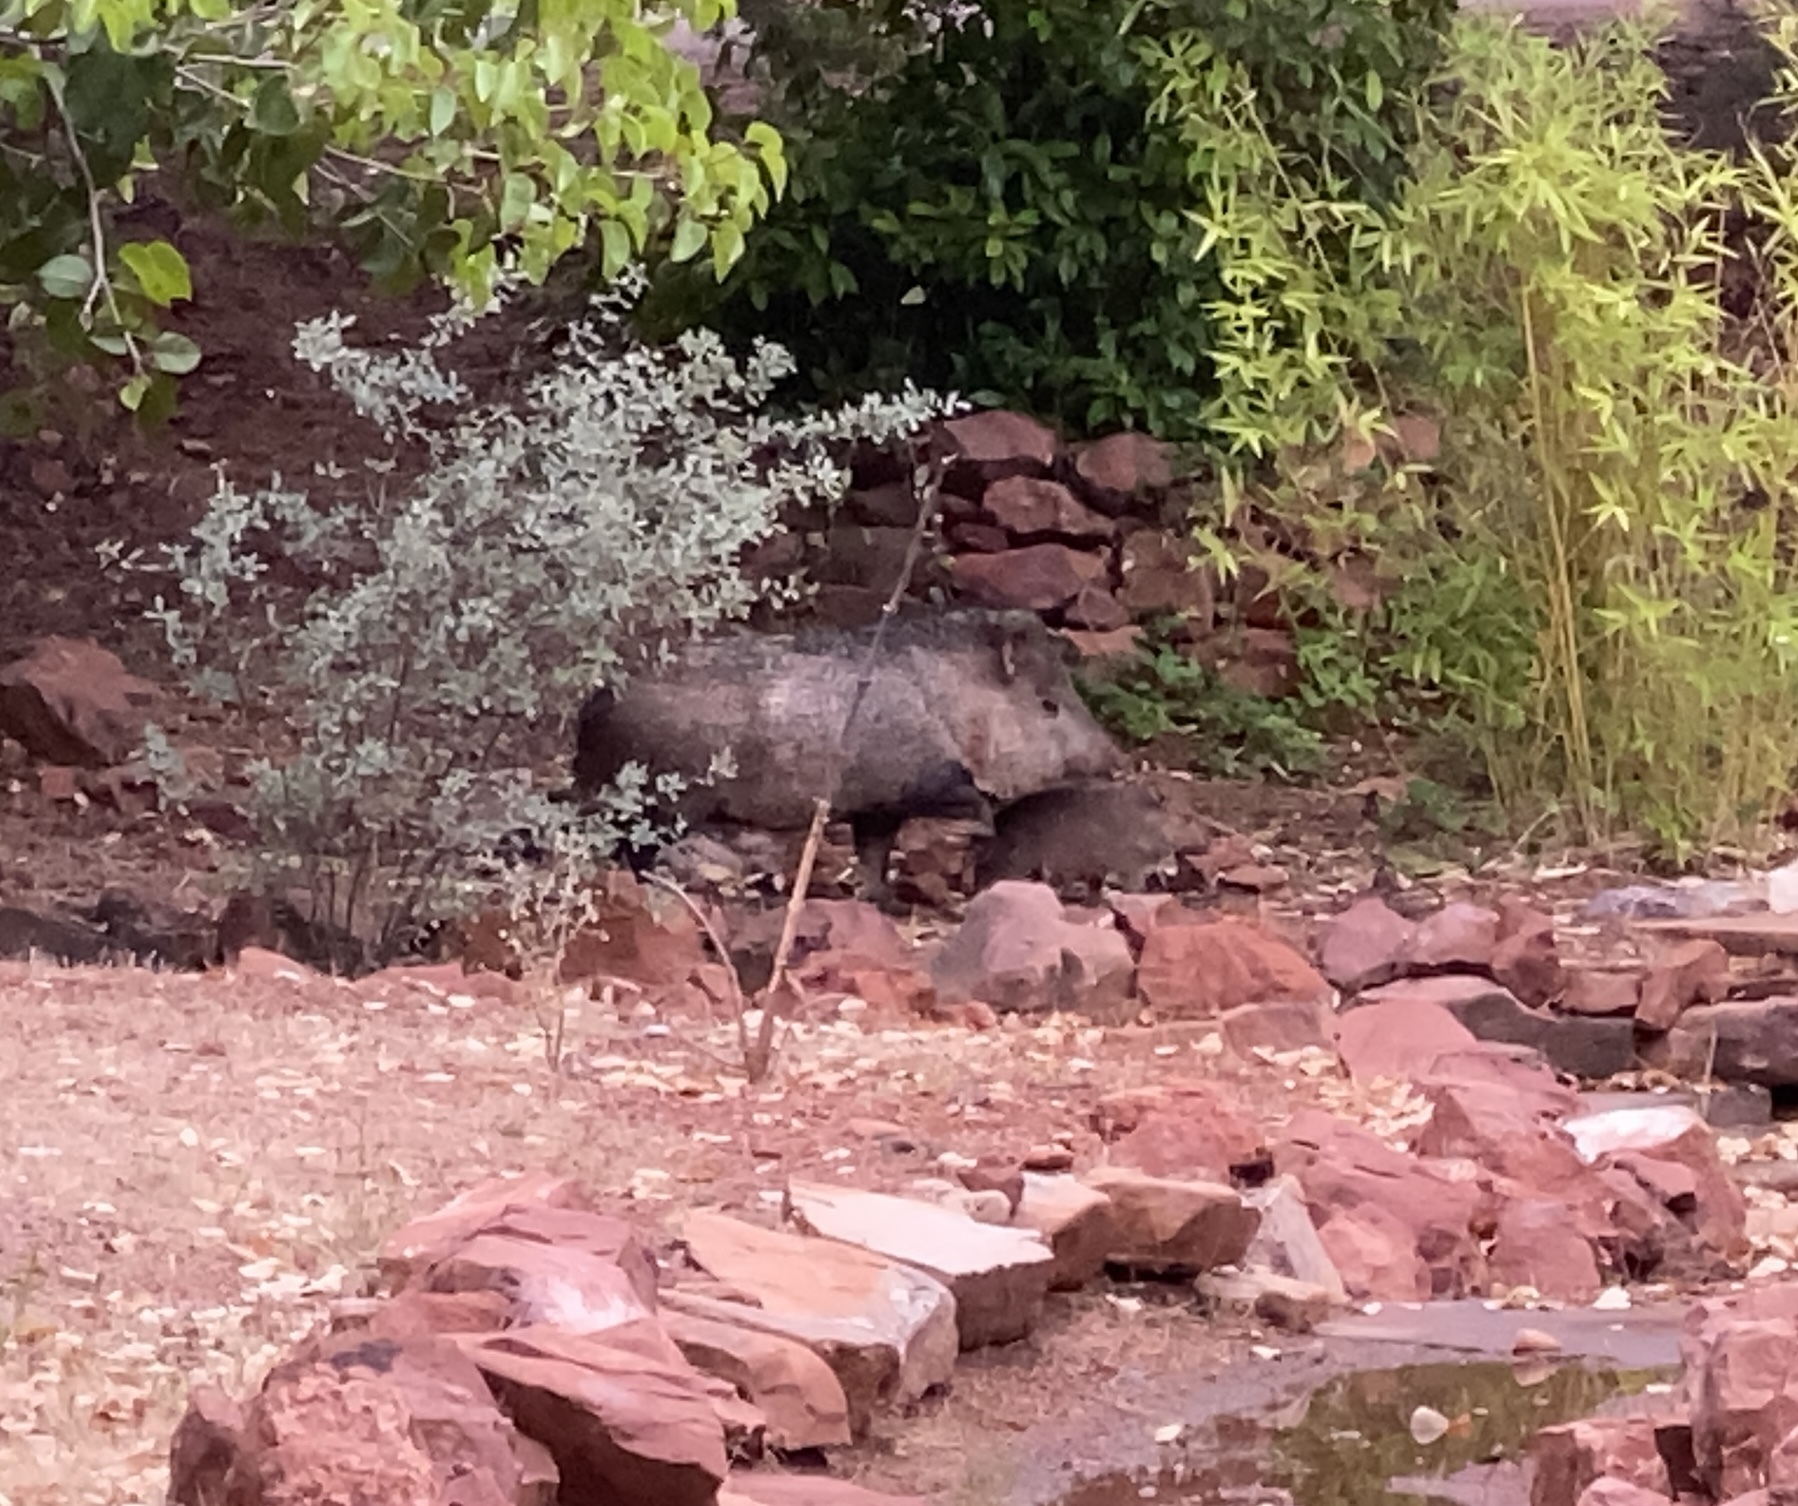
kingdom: Animalia
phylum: Chordata
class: Mammalia
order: Artiodactyla
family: Tayassuidae
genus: Pecari
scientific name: Pecari tajacu
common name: Collared peccary
